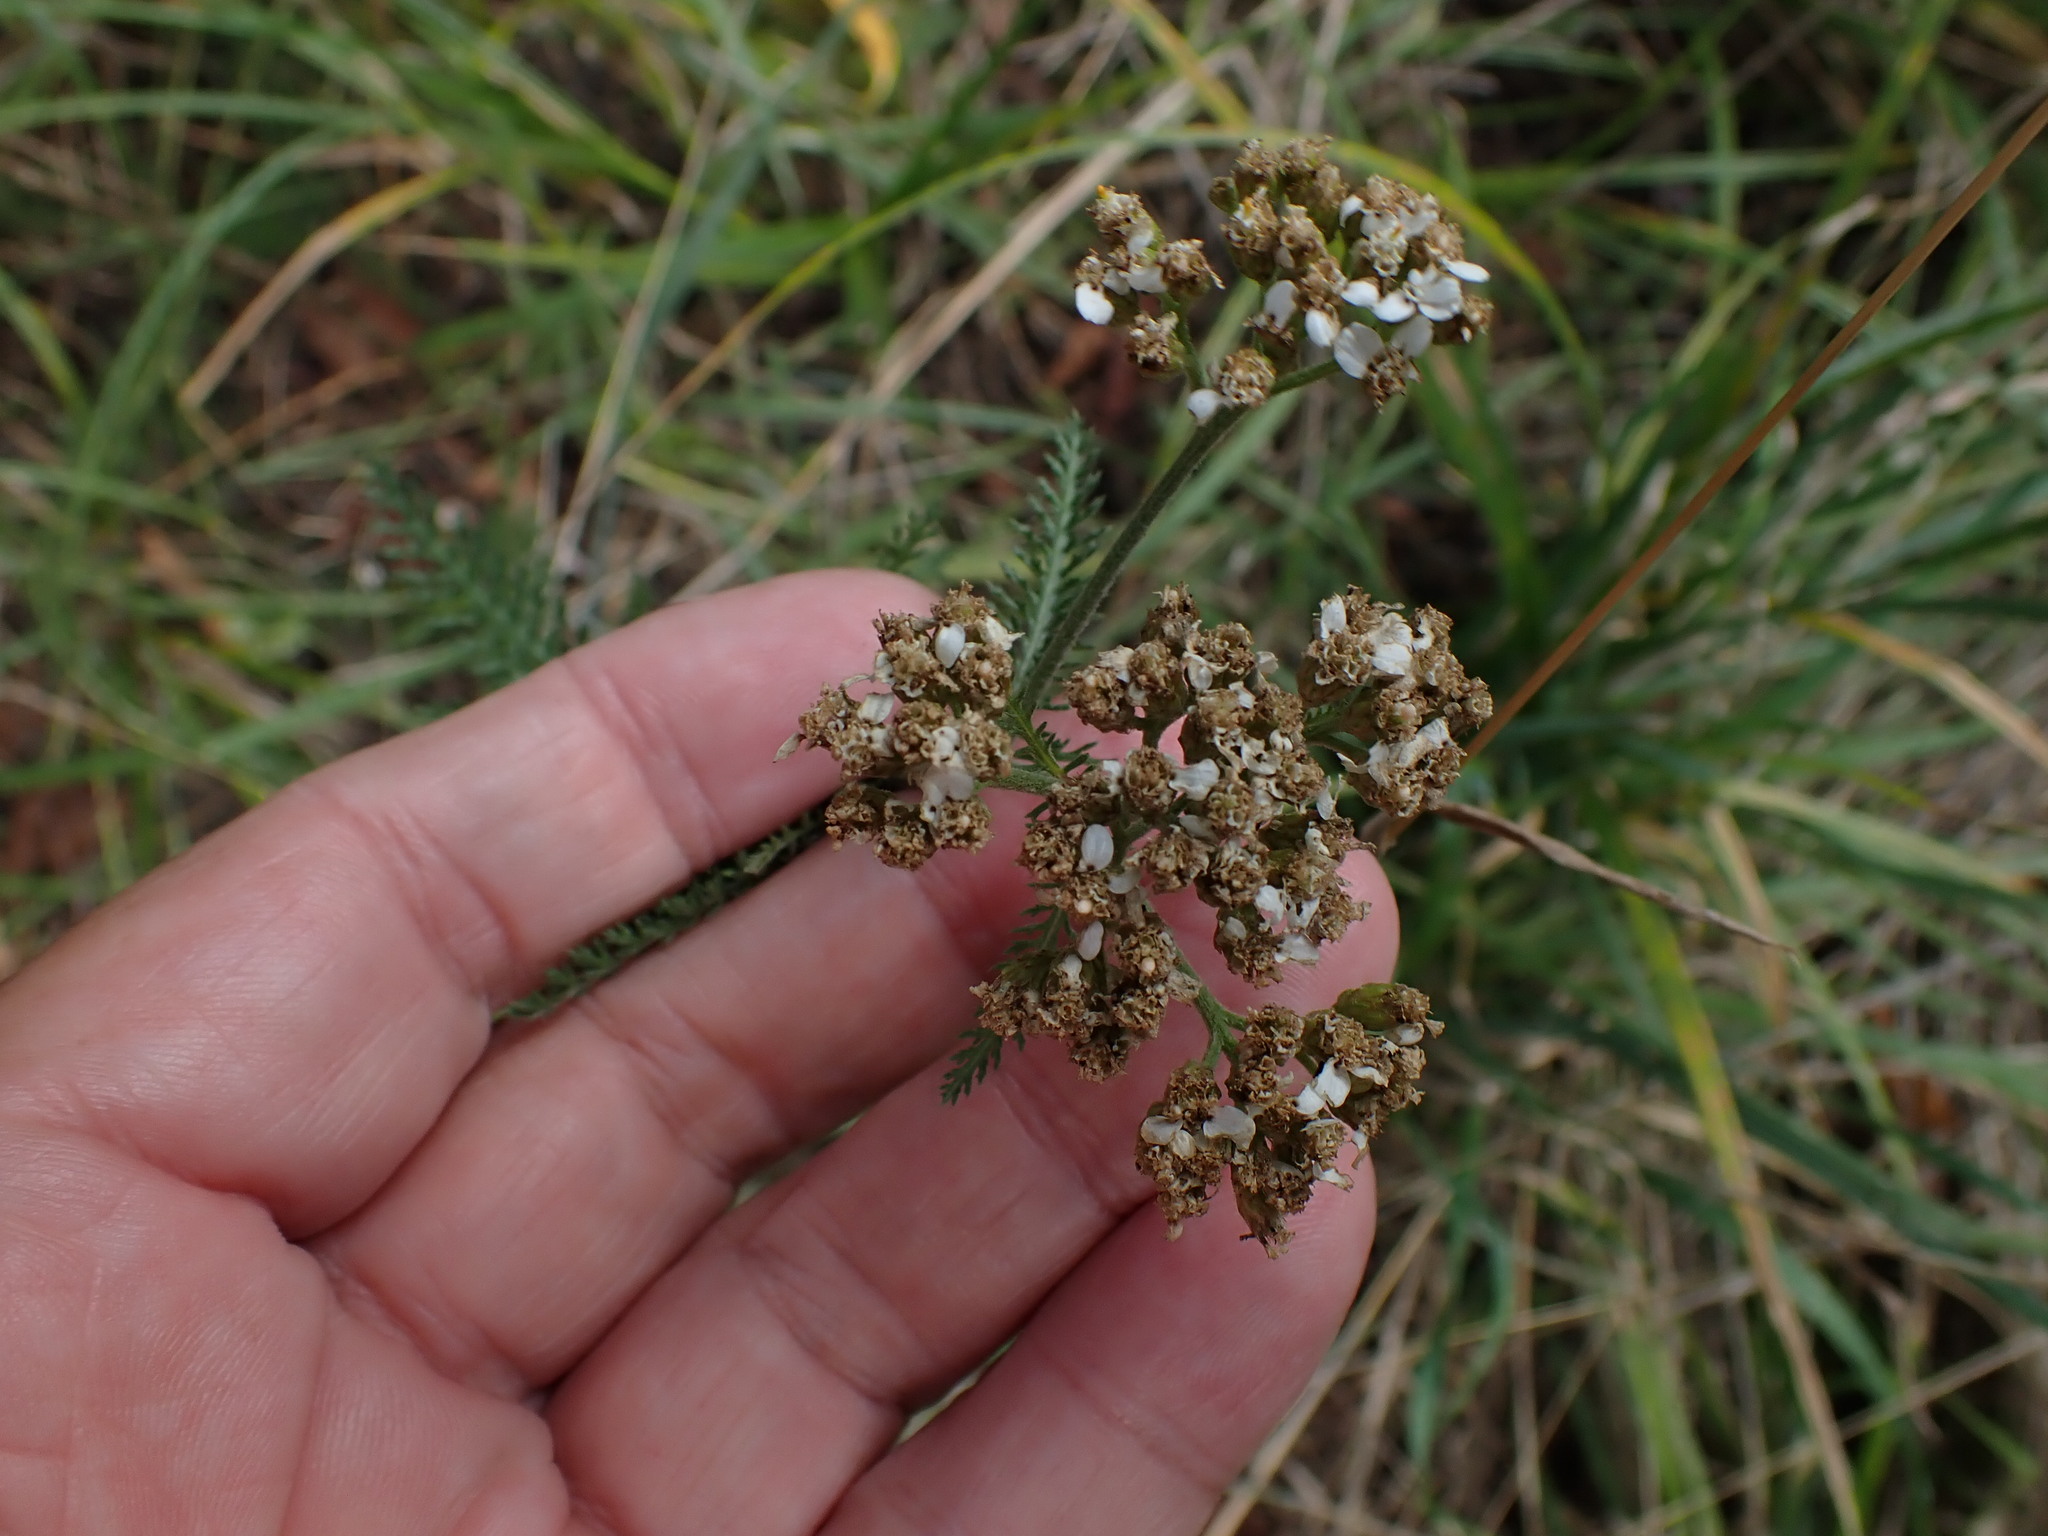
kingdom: Plantae
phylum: Tracheophyta
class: Magnoliopsida
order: Asterales
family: Asteraceae
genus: Achillea
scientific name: Achillea millefolium
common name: Yarrow
